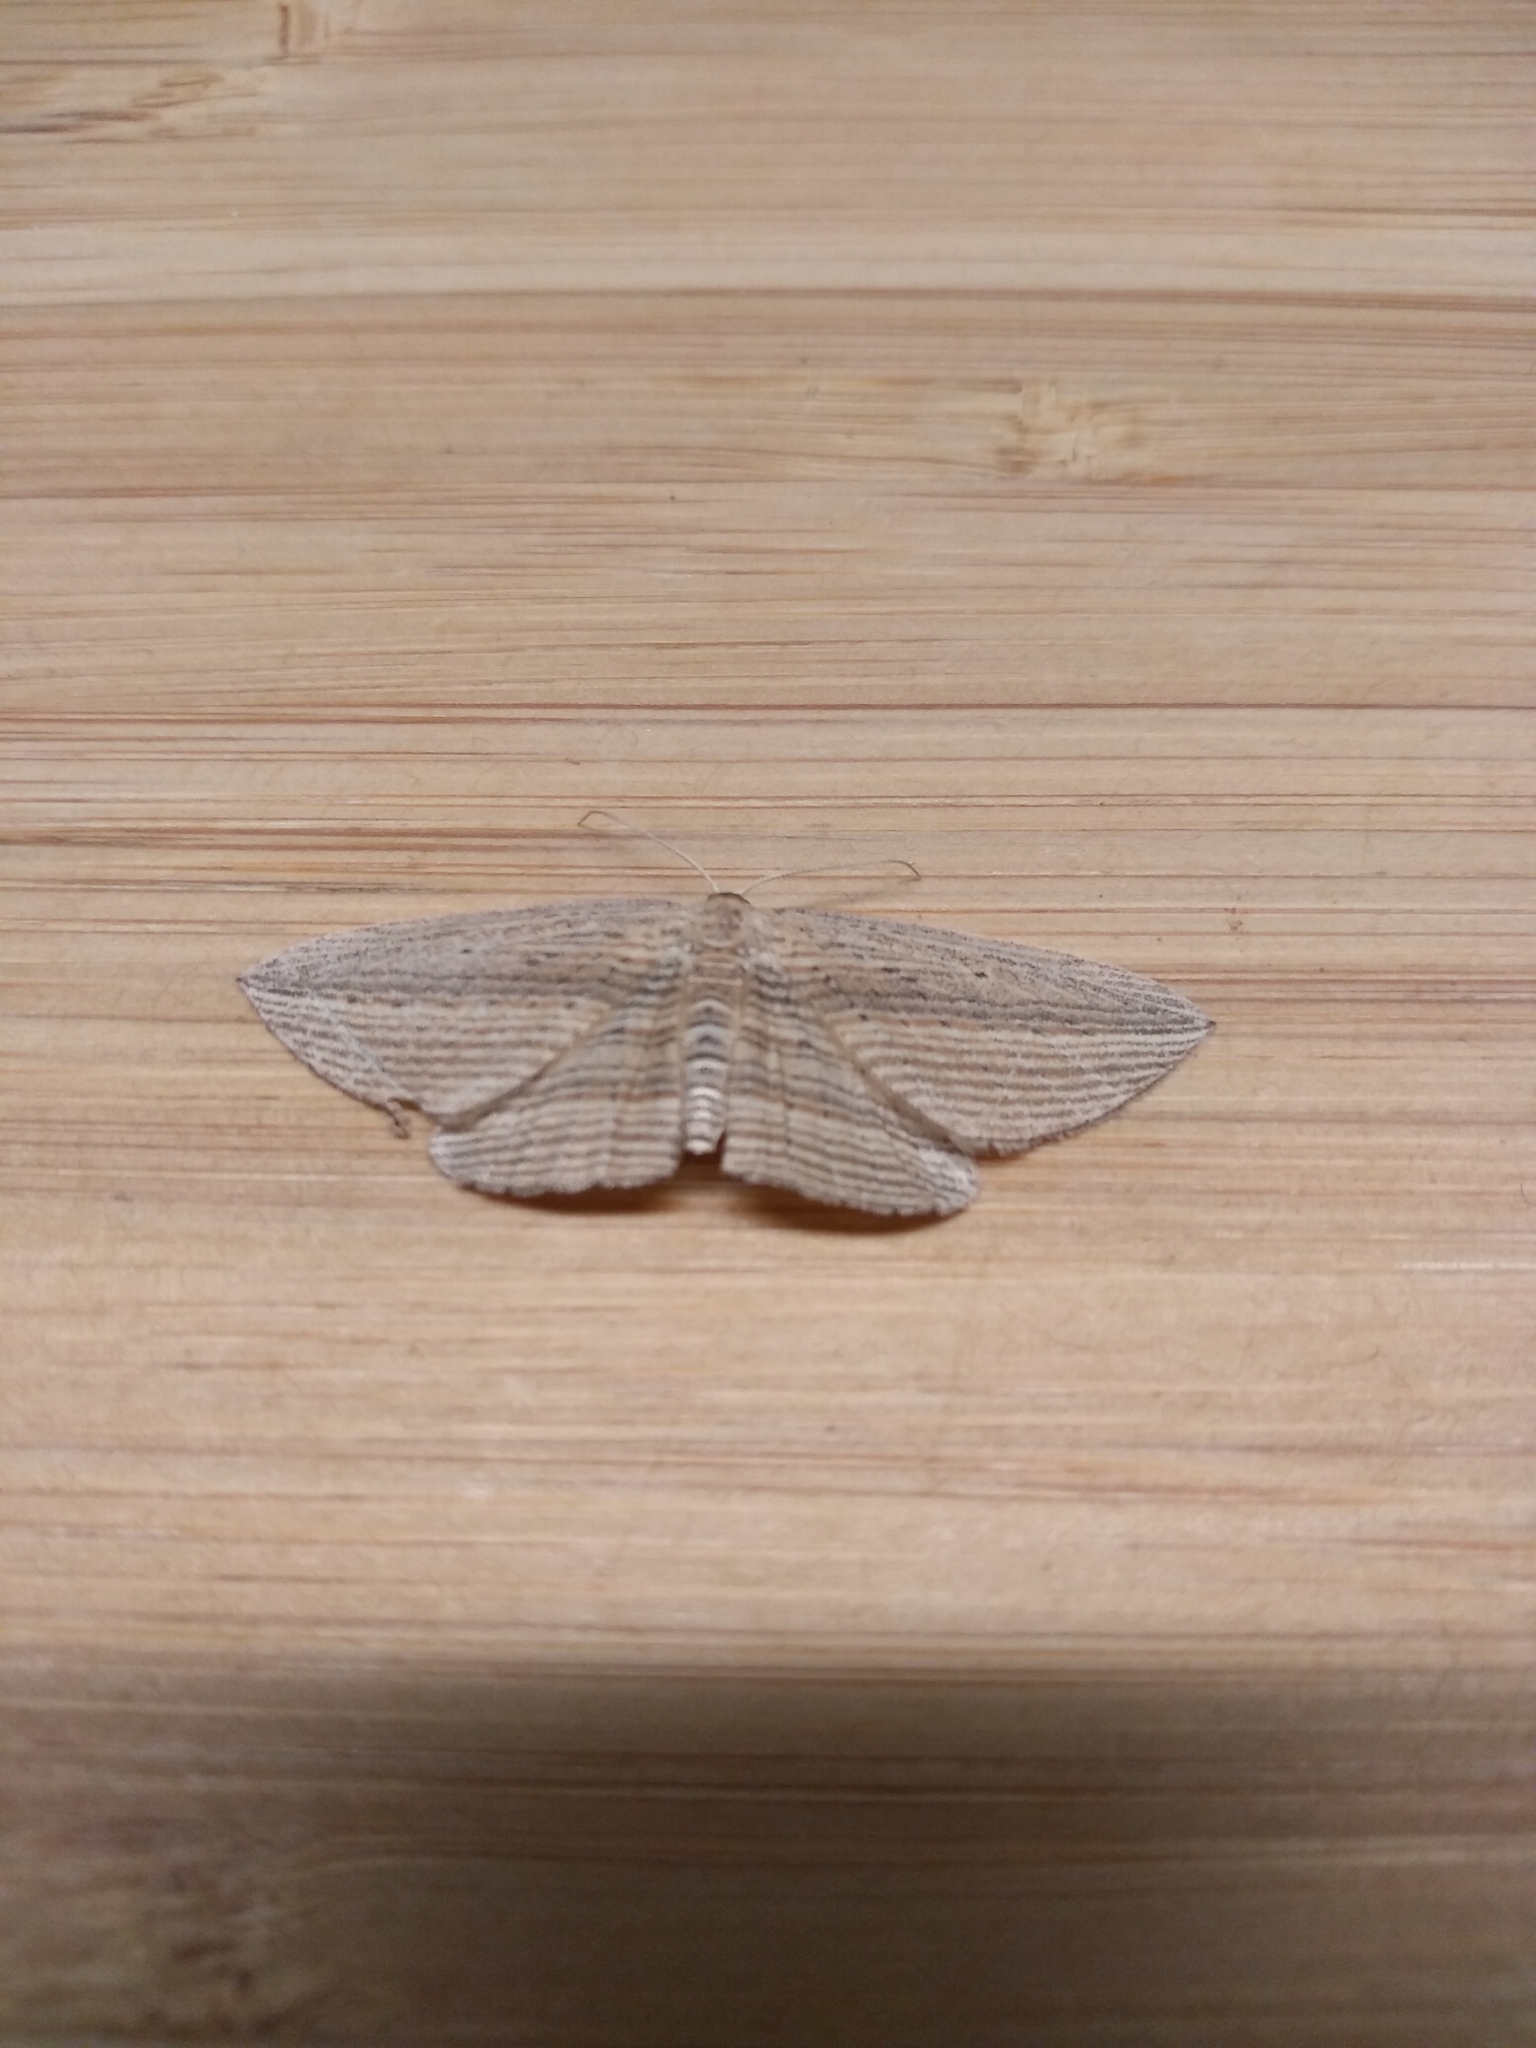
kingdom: Animalia
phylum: Arthropoda
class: Insecta
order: Lepidoptera
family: Geometridae
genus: Epiphryne
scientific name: Epiphryne verriculata
